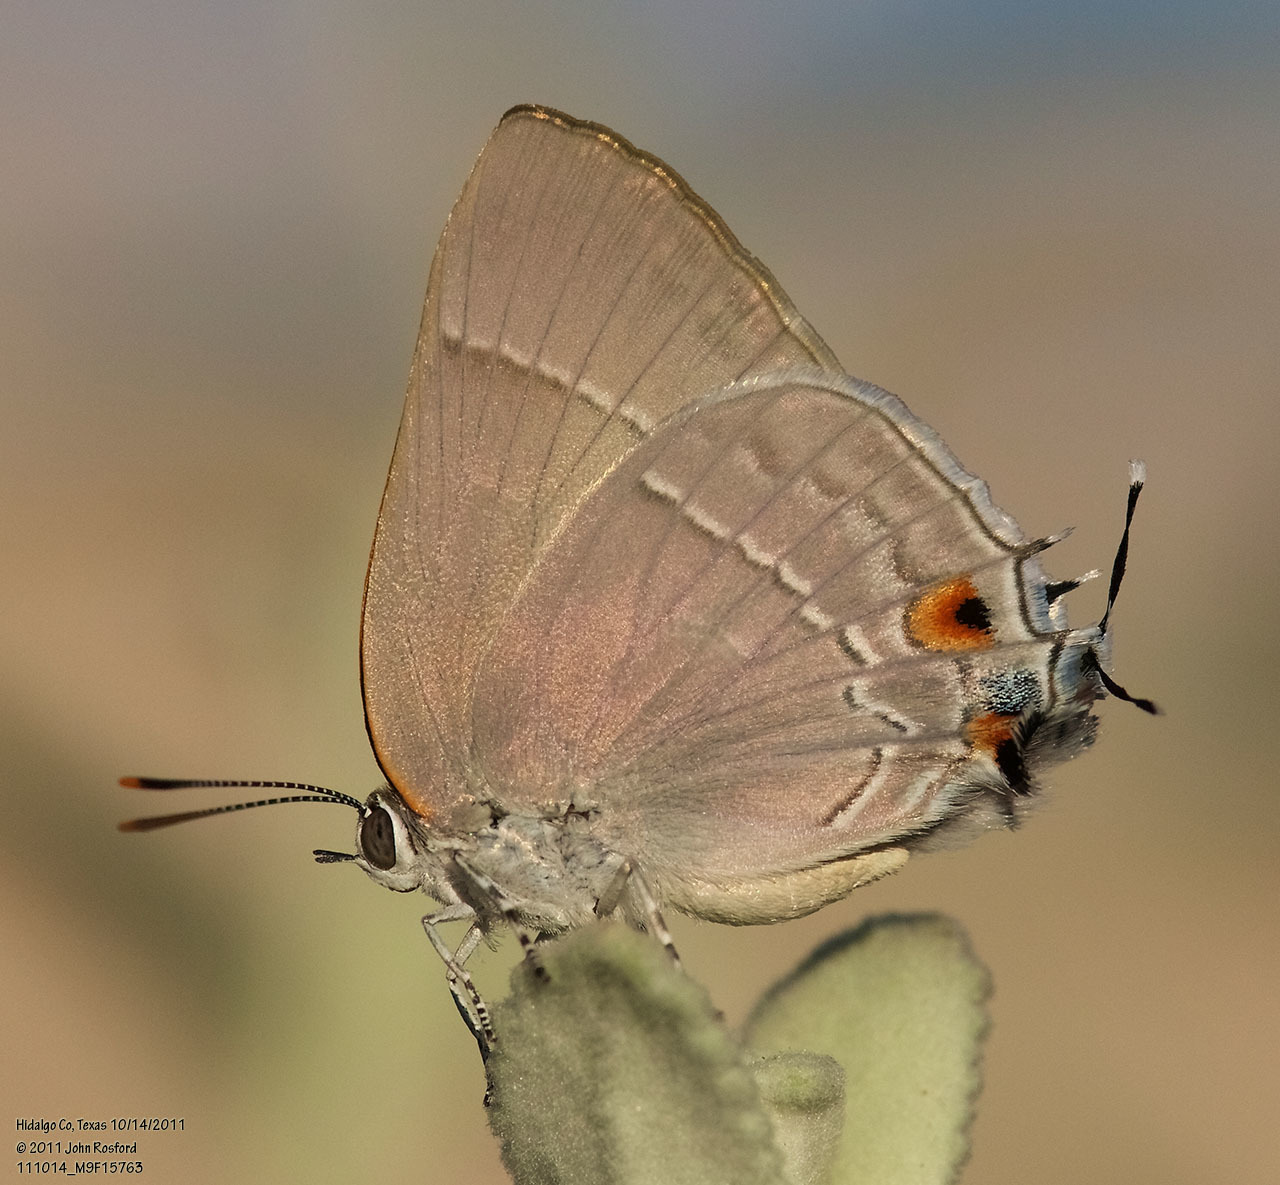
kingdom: Animalia
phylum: Arthropoda
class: Insecta
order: Lepidoptera
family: Lycaenidae
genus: Thecla
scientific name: Thecla marius
